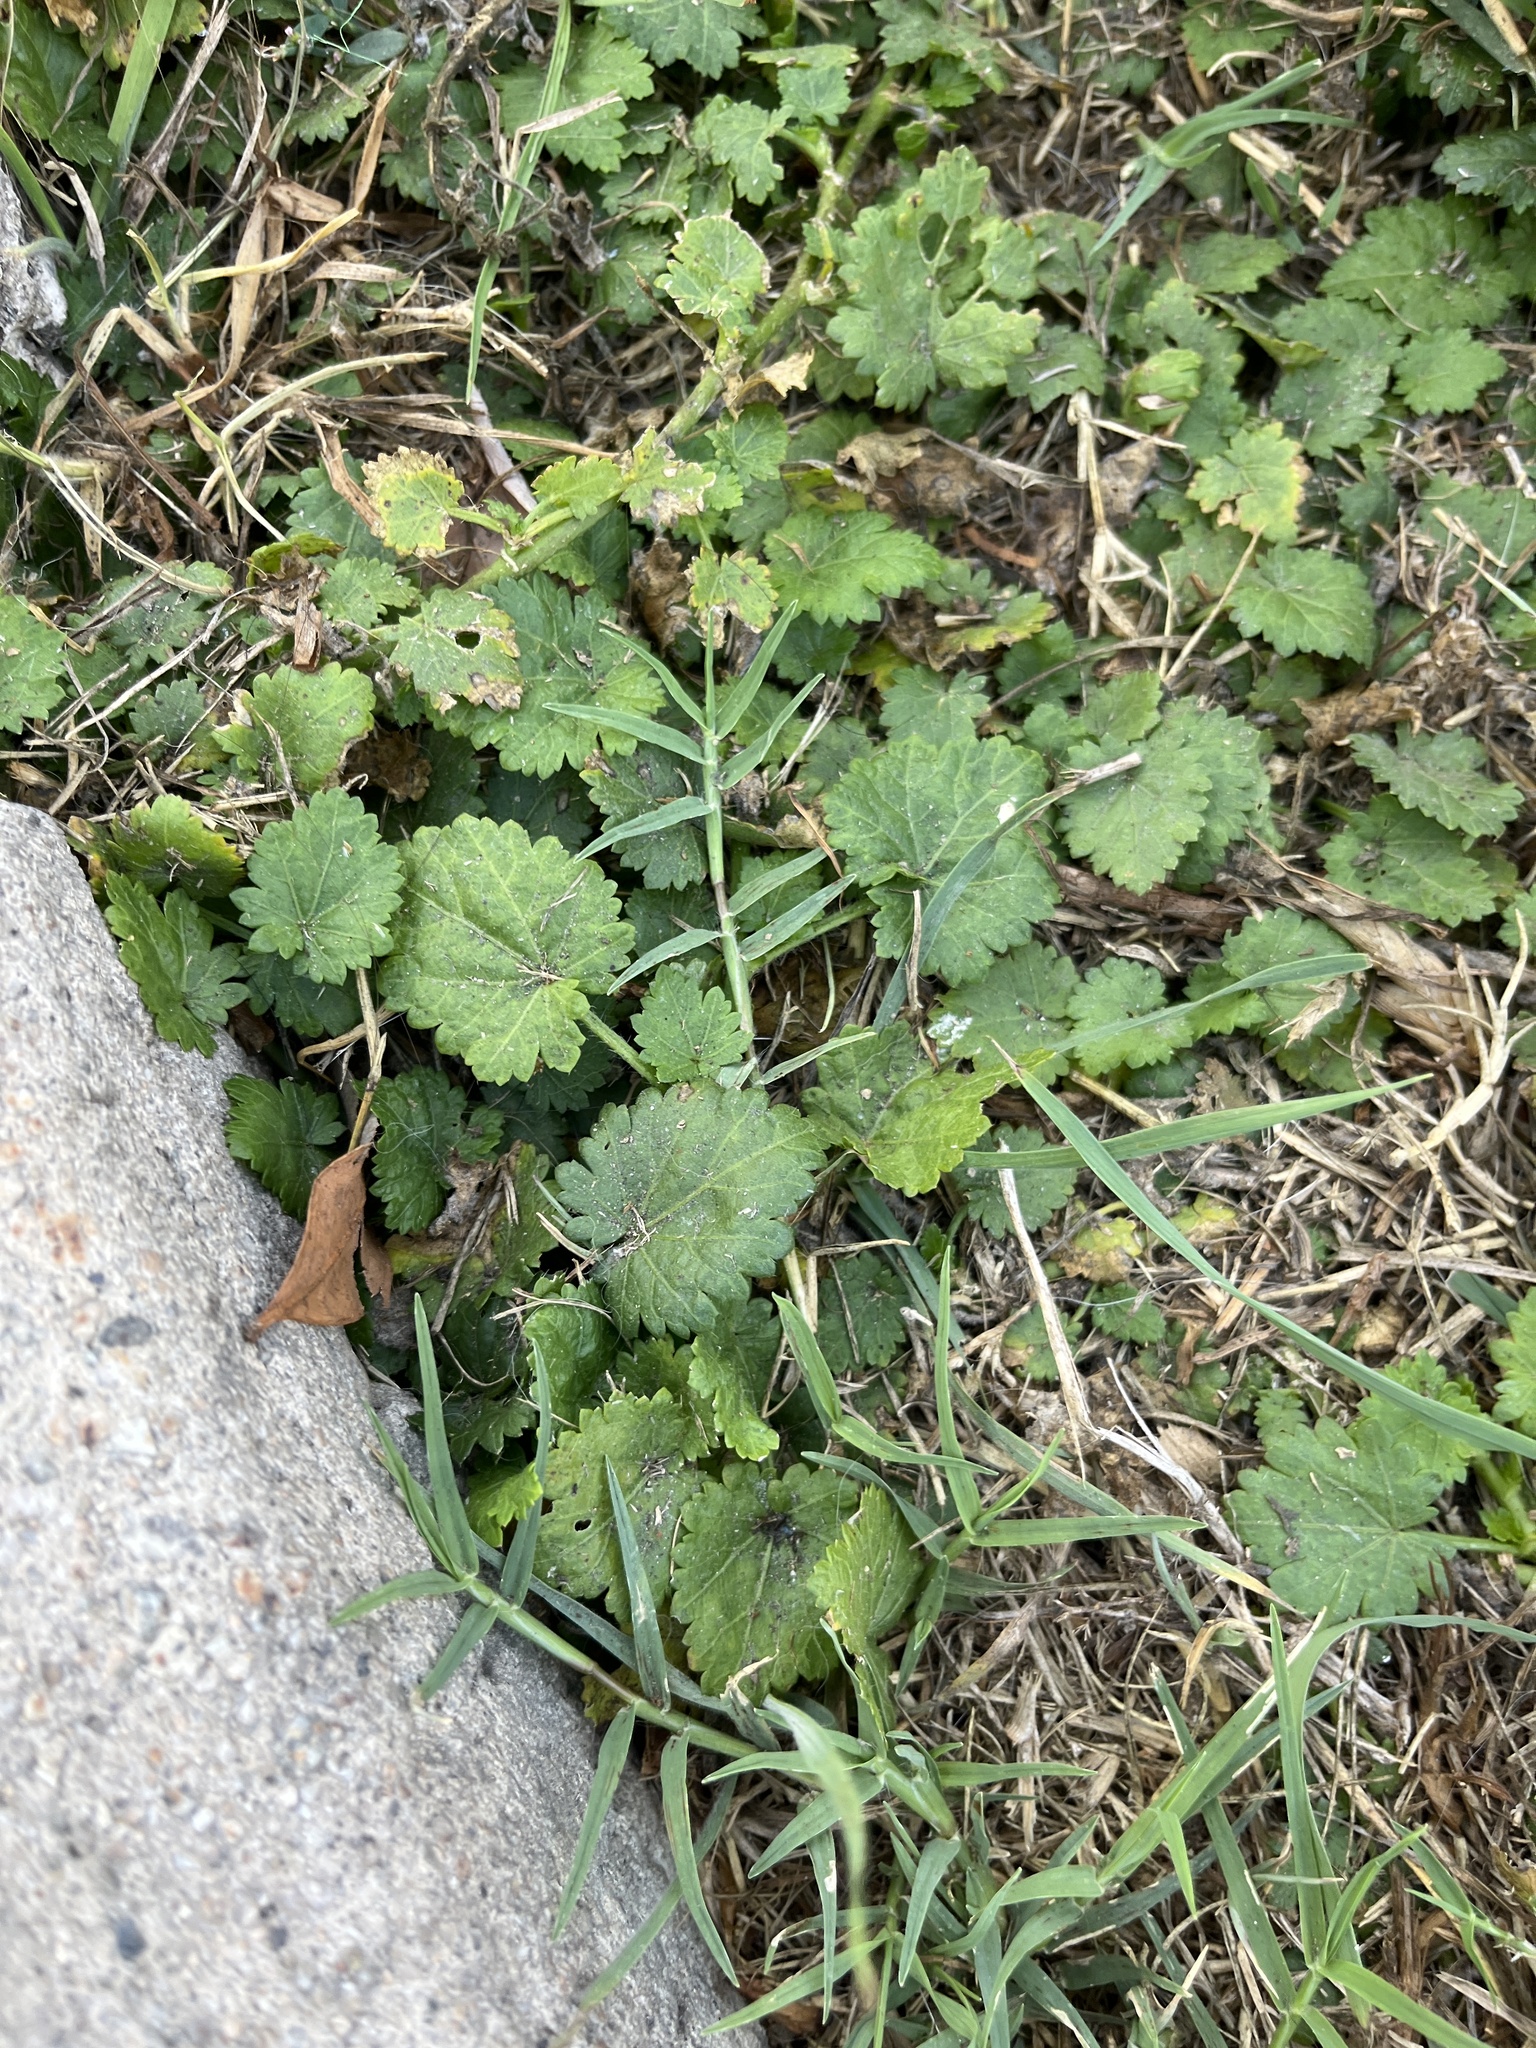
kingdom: Plantae
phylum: Tracheophyta
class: Magnoliopsida
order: Malvales
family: Malvaceae
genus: Modiola
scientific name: Modiola caroliniana
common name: Carolina bristlemallow
